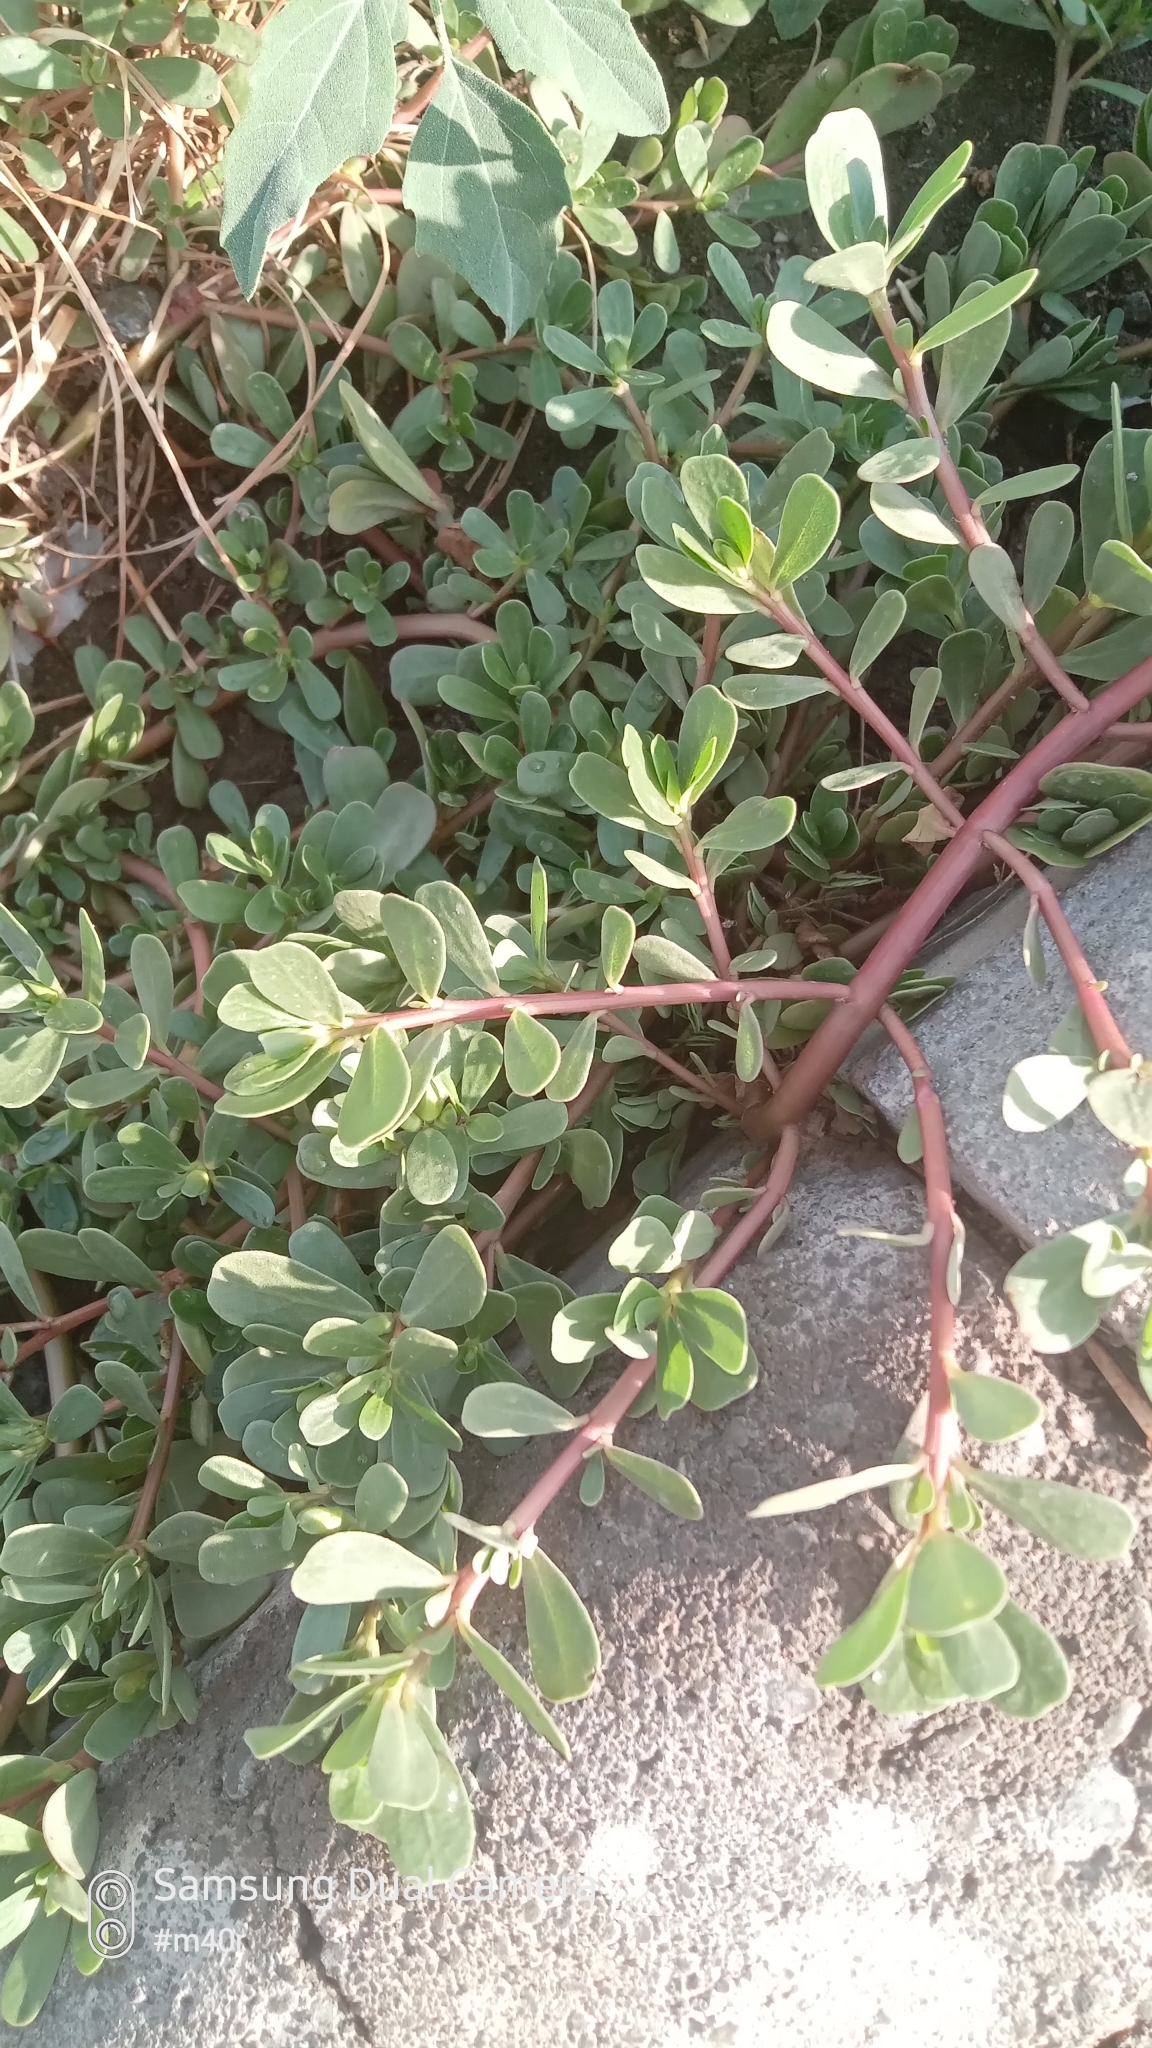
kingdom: Plantae
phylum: Tracheophyta
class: Magnoliopsida
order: Caryophyllales
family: Portulacaceae
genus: Portulaca
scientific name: Portulaca oleracea
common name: Common purslane
